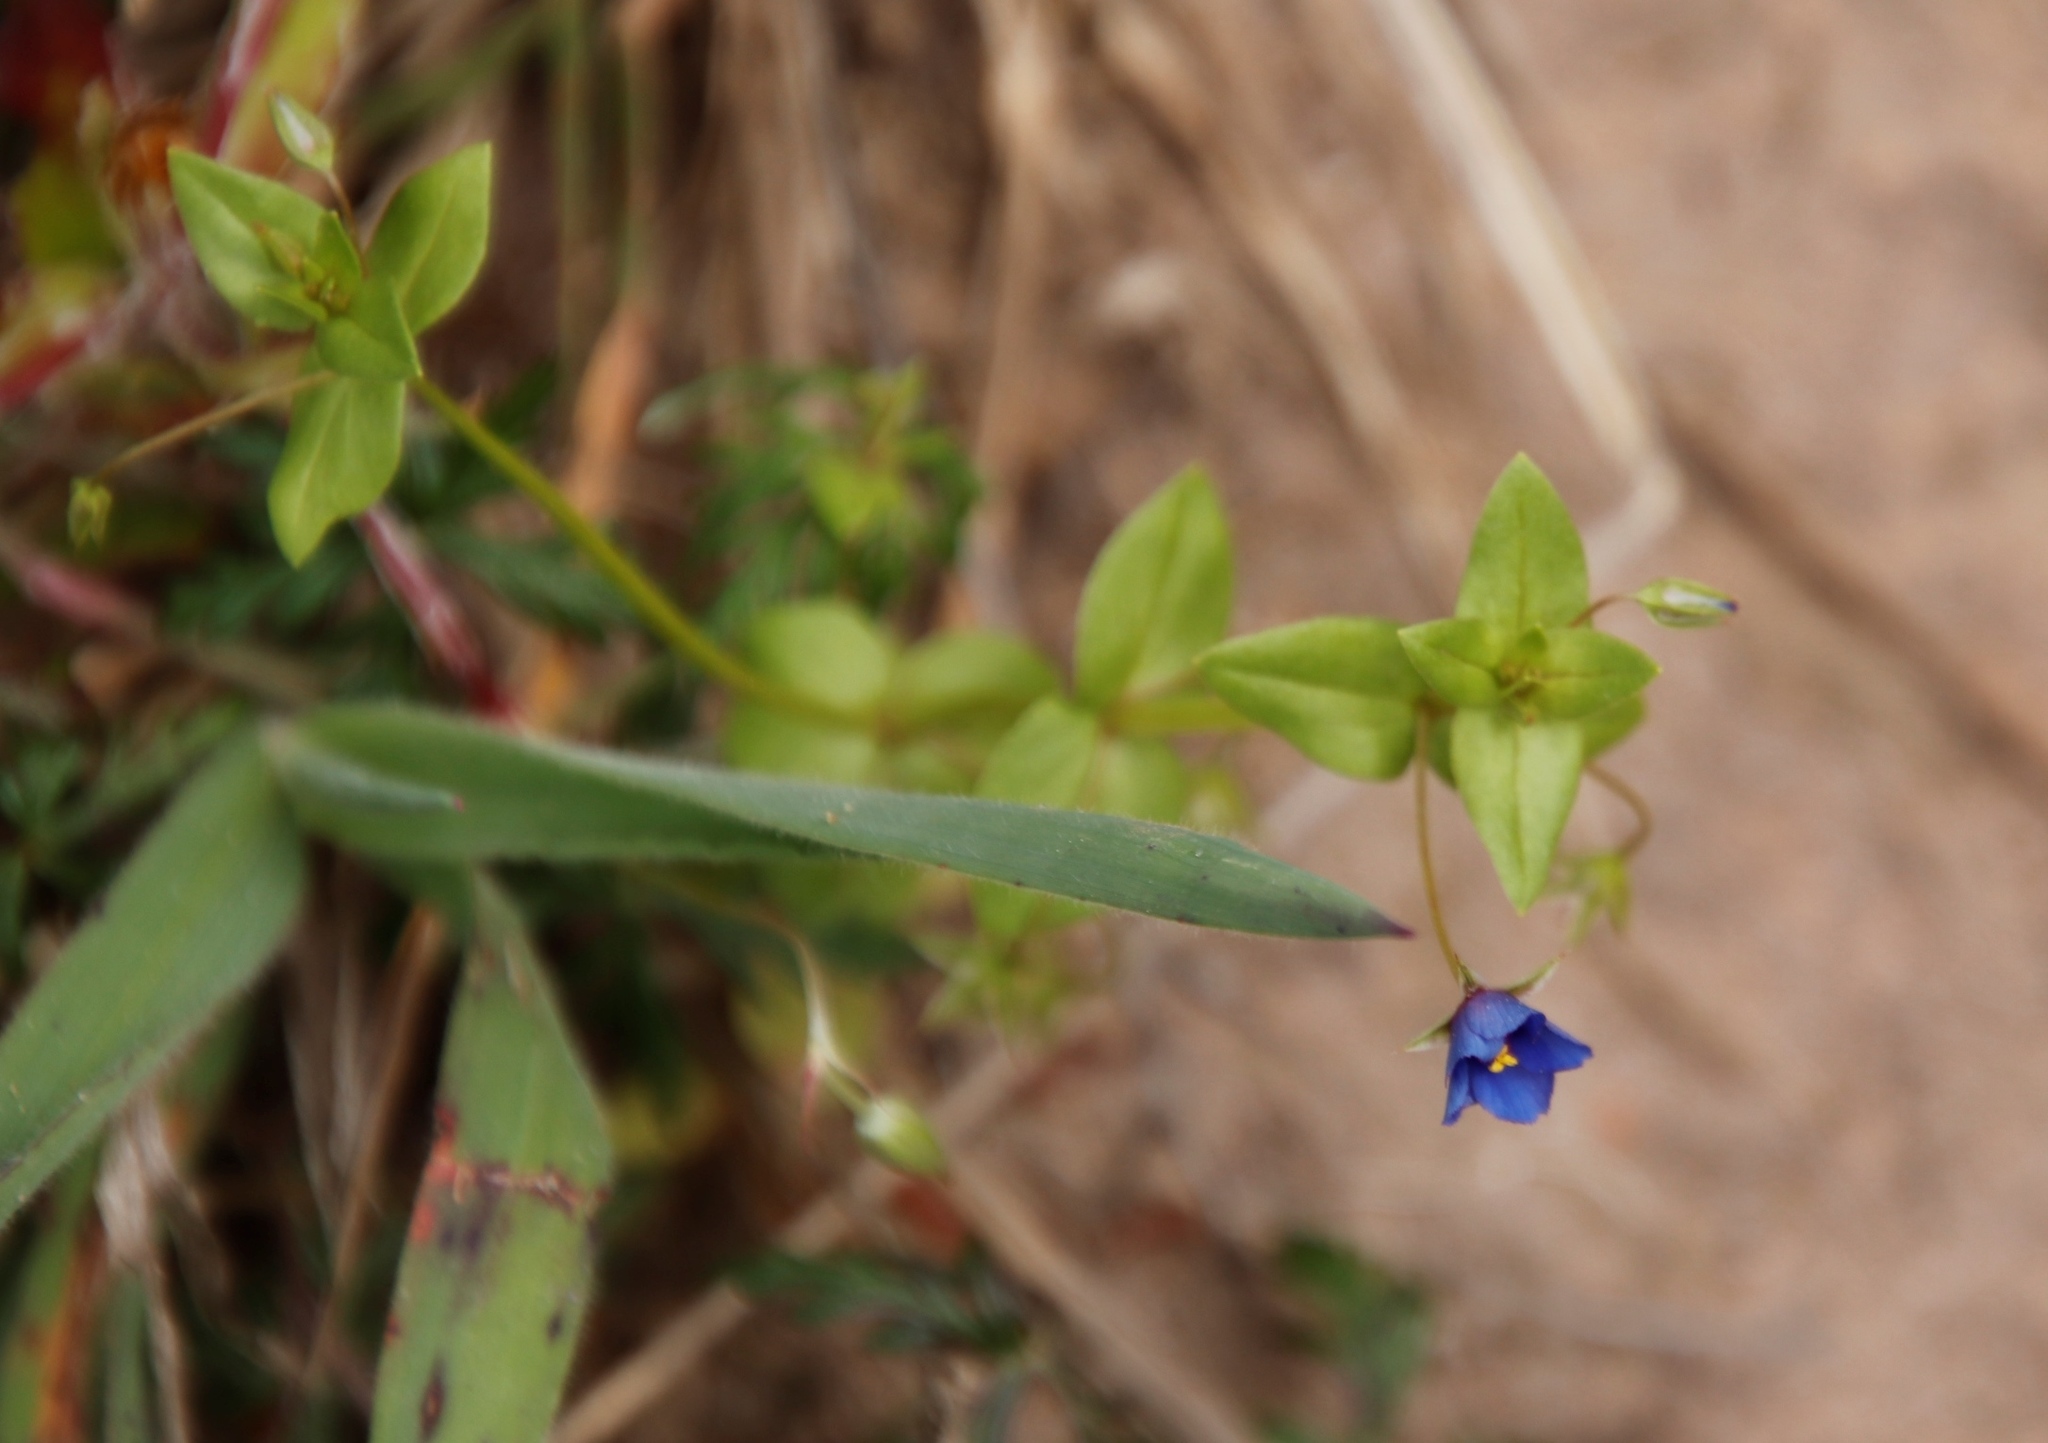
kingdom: Plantae
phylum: Tracheophyta
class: Magnoliopsida
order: Ericales
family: Primulaceae
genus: Lysimachia
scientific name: Lysimachia loeflingii
